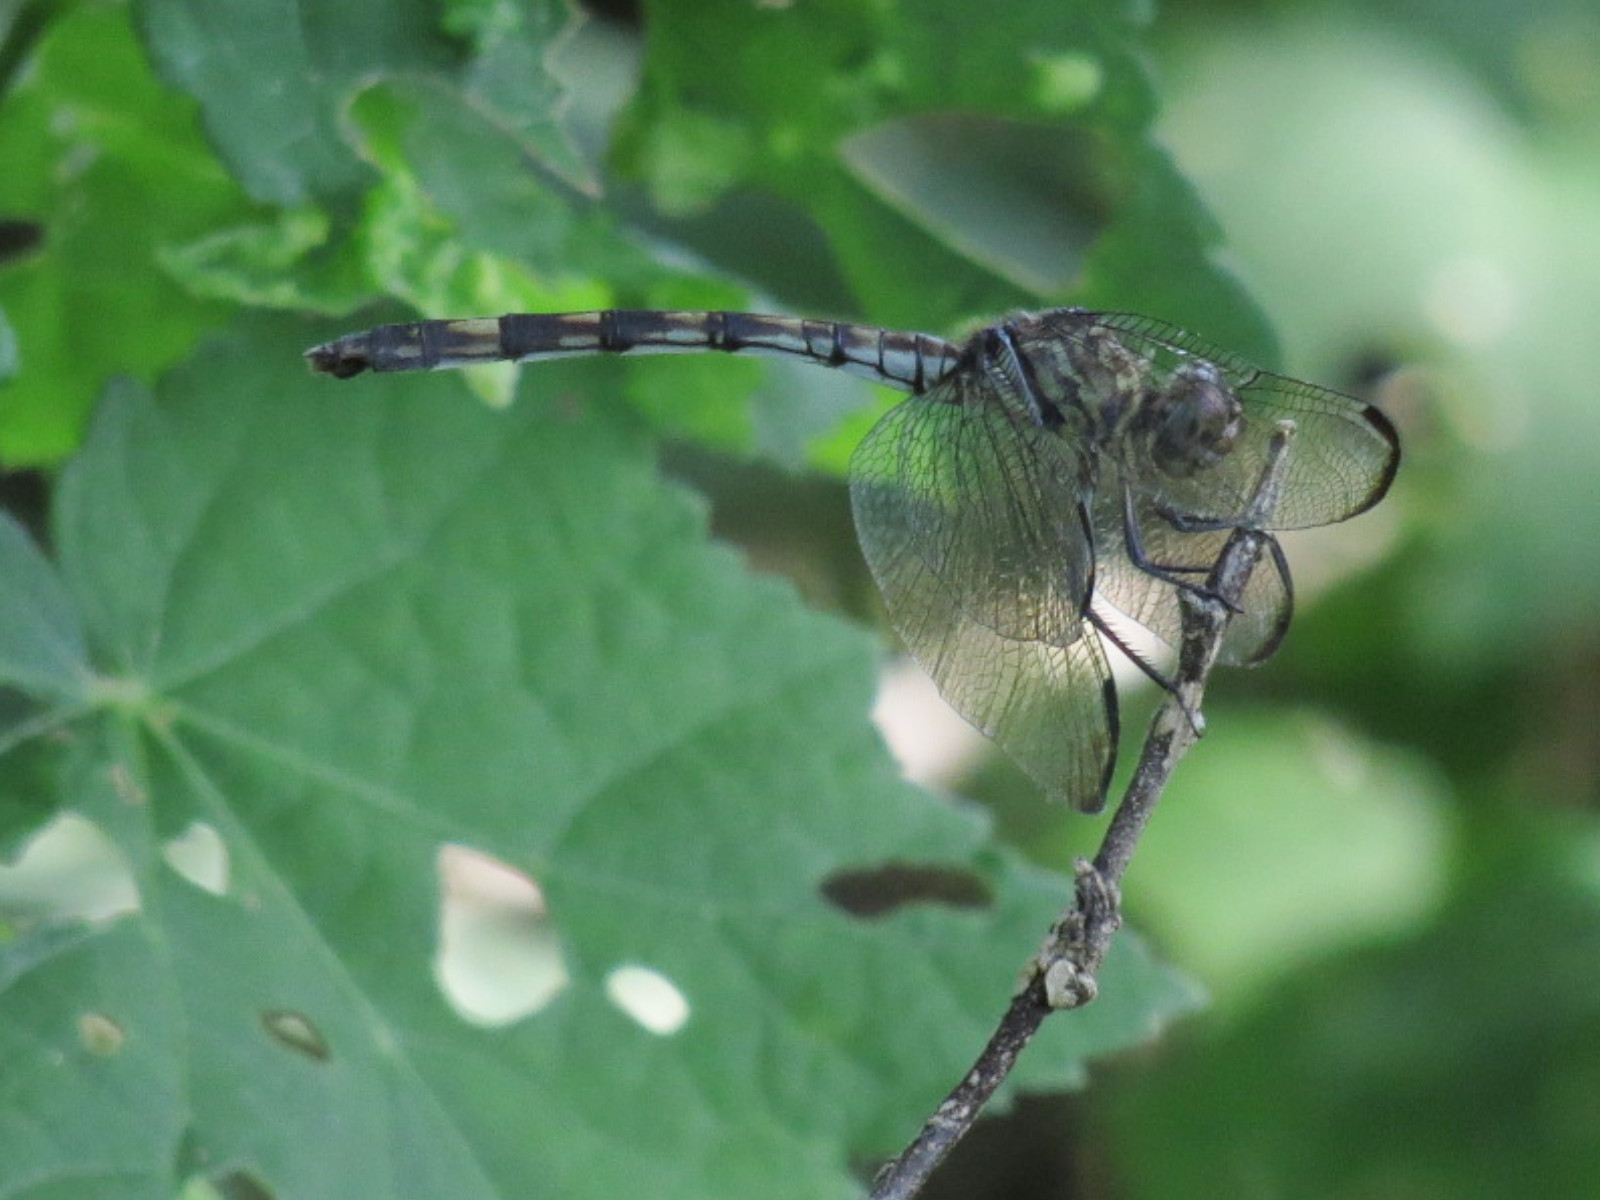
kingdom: Animalia
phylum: Arthropoda
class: Insecta
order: Odonata
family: Libellulidae
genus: Dythemis
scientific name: Dythemis nigrescens
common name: Black setwing
